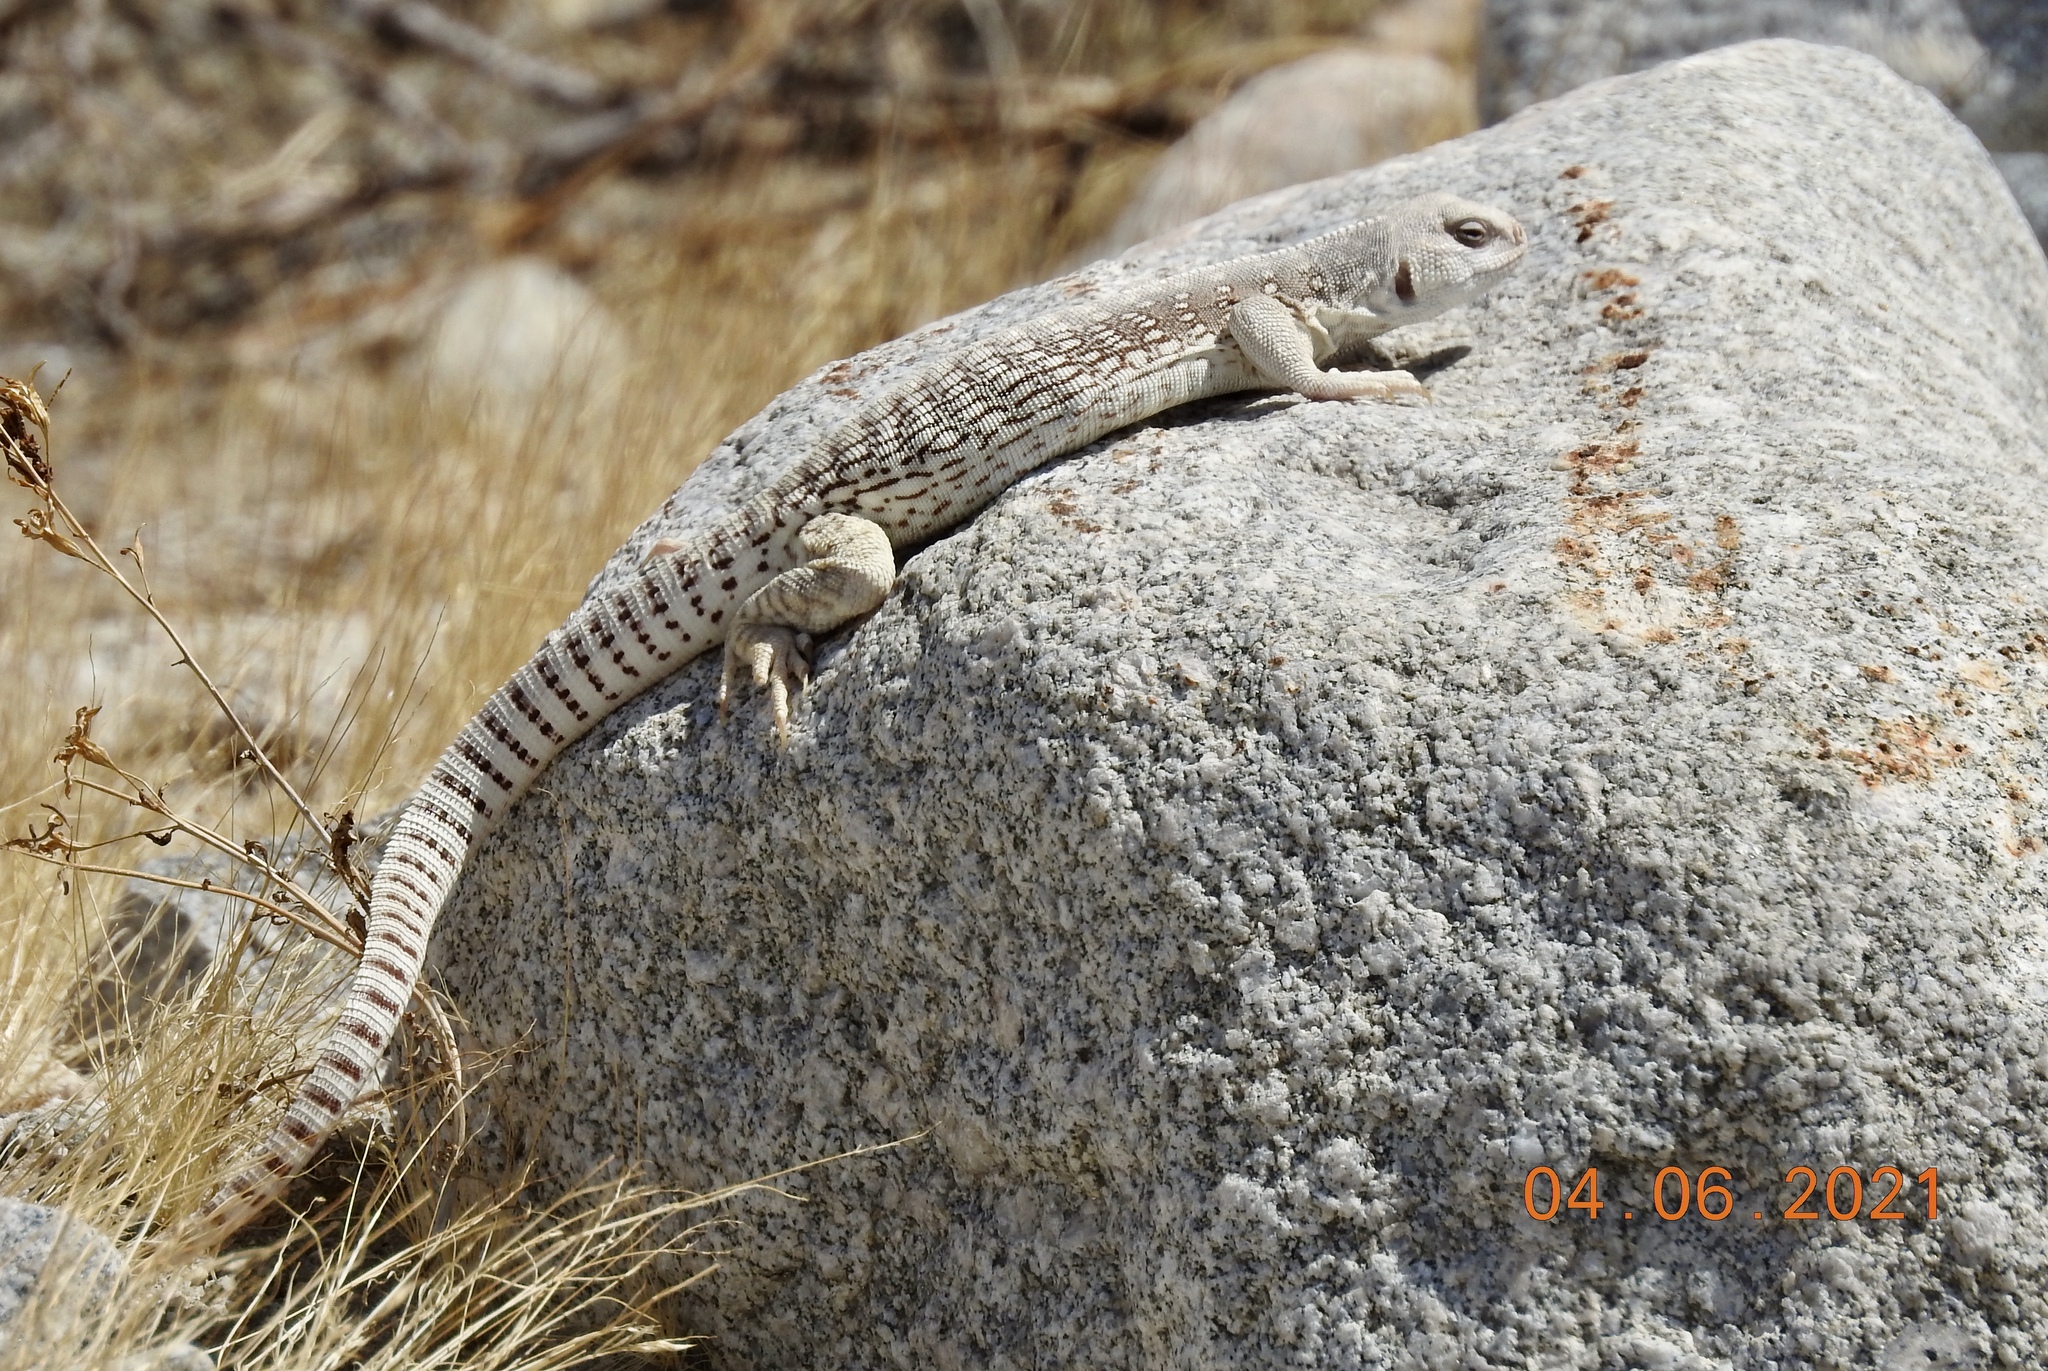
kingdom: Animalia
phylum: Chordata
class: Squamata
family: Iguanidae
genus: Dipsosaurus
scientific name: Dipsosaurus dorsalis
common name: Desert iguana
